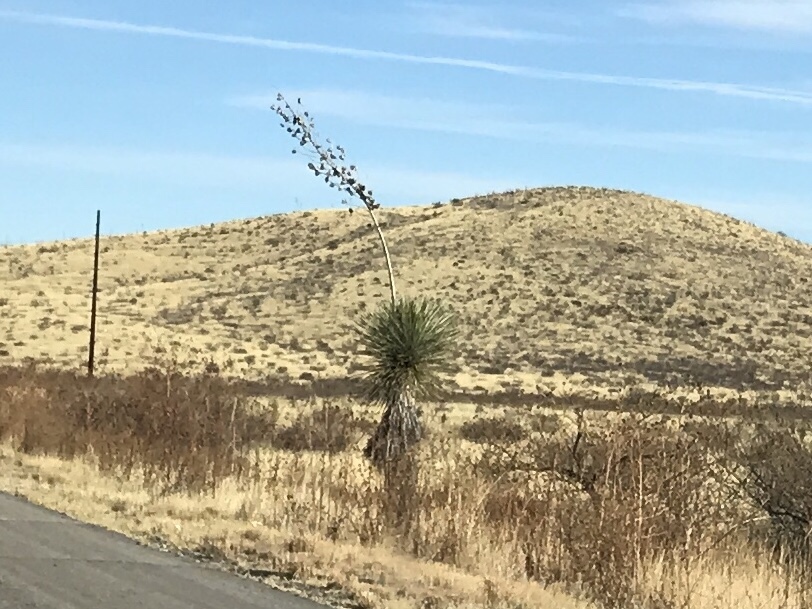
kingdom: Plantae
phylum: Tracheophyta
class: Liliopsida
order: Asparagales
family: Asparagaceae
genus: Yucca
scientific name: Yucca elata
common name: Palmella
